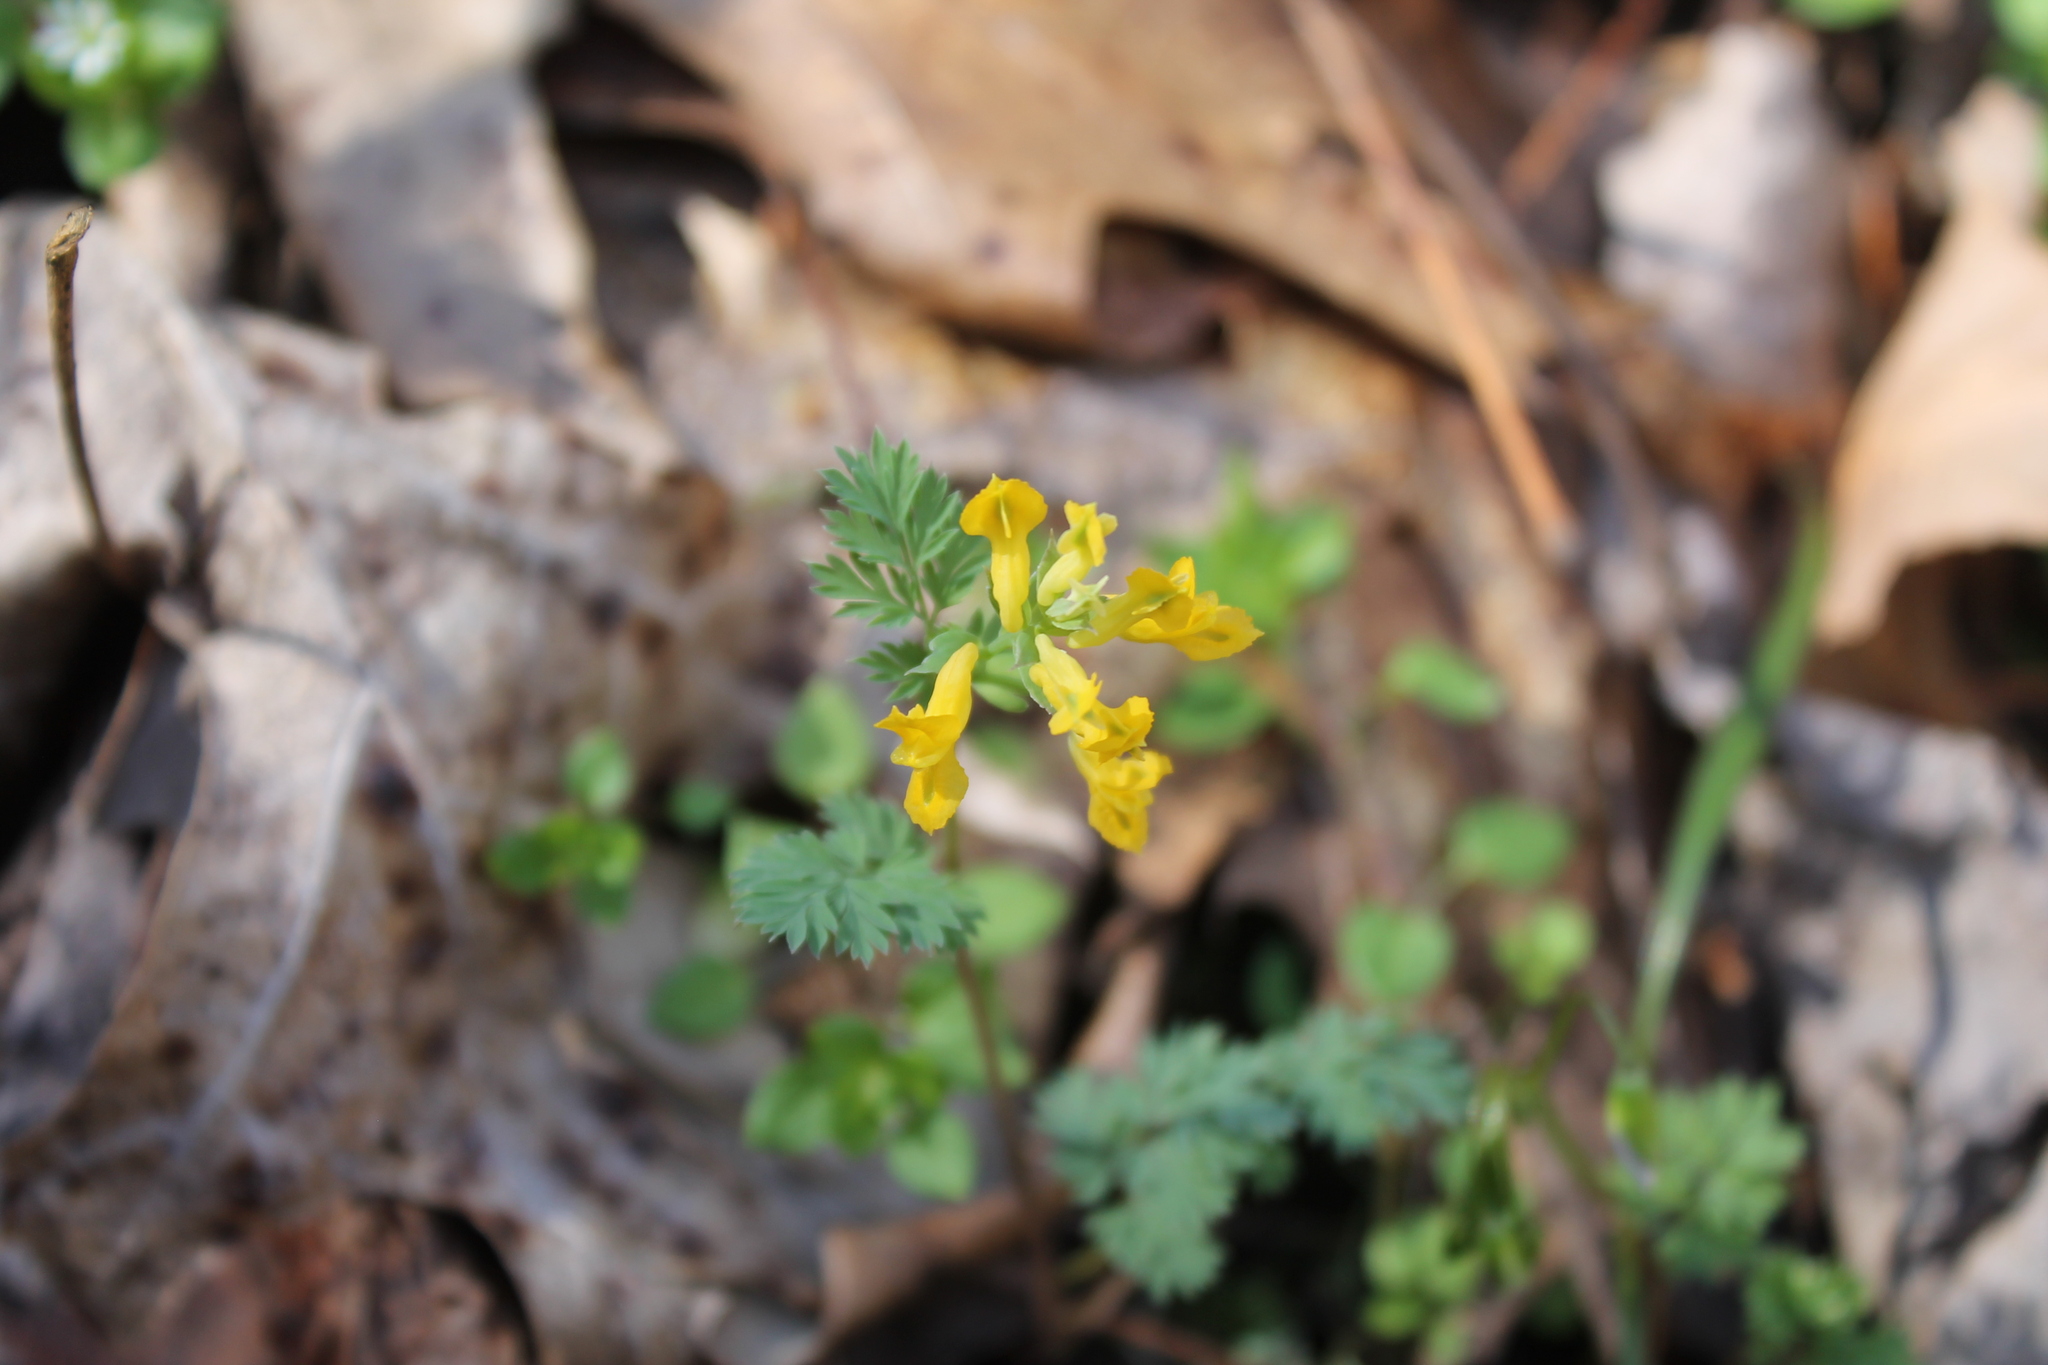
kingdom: Plantae
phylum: Tracheophyta
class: Magnoliopsida
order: Ranunculales
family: Papaveraceae
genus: Corydalis
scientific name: Corydalis flavula
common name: Yellow corydalis
